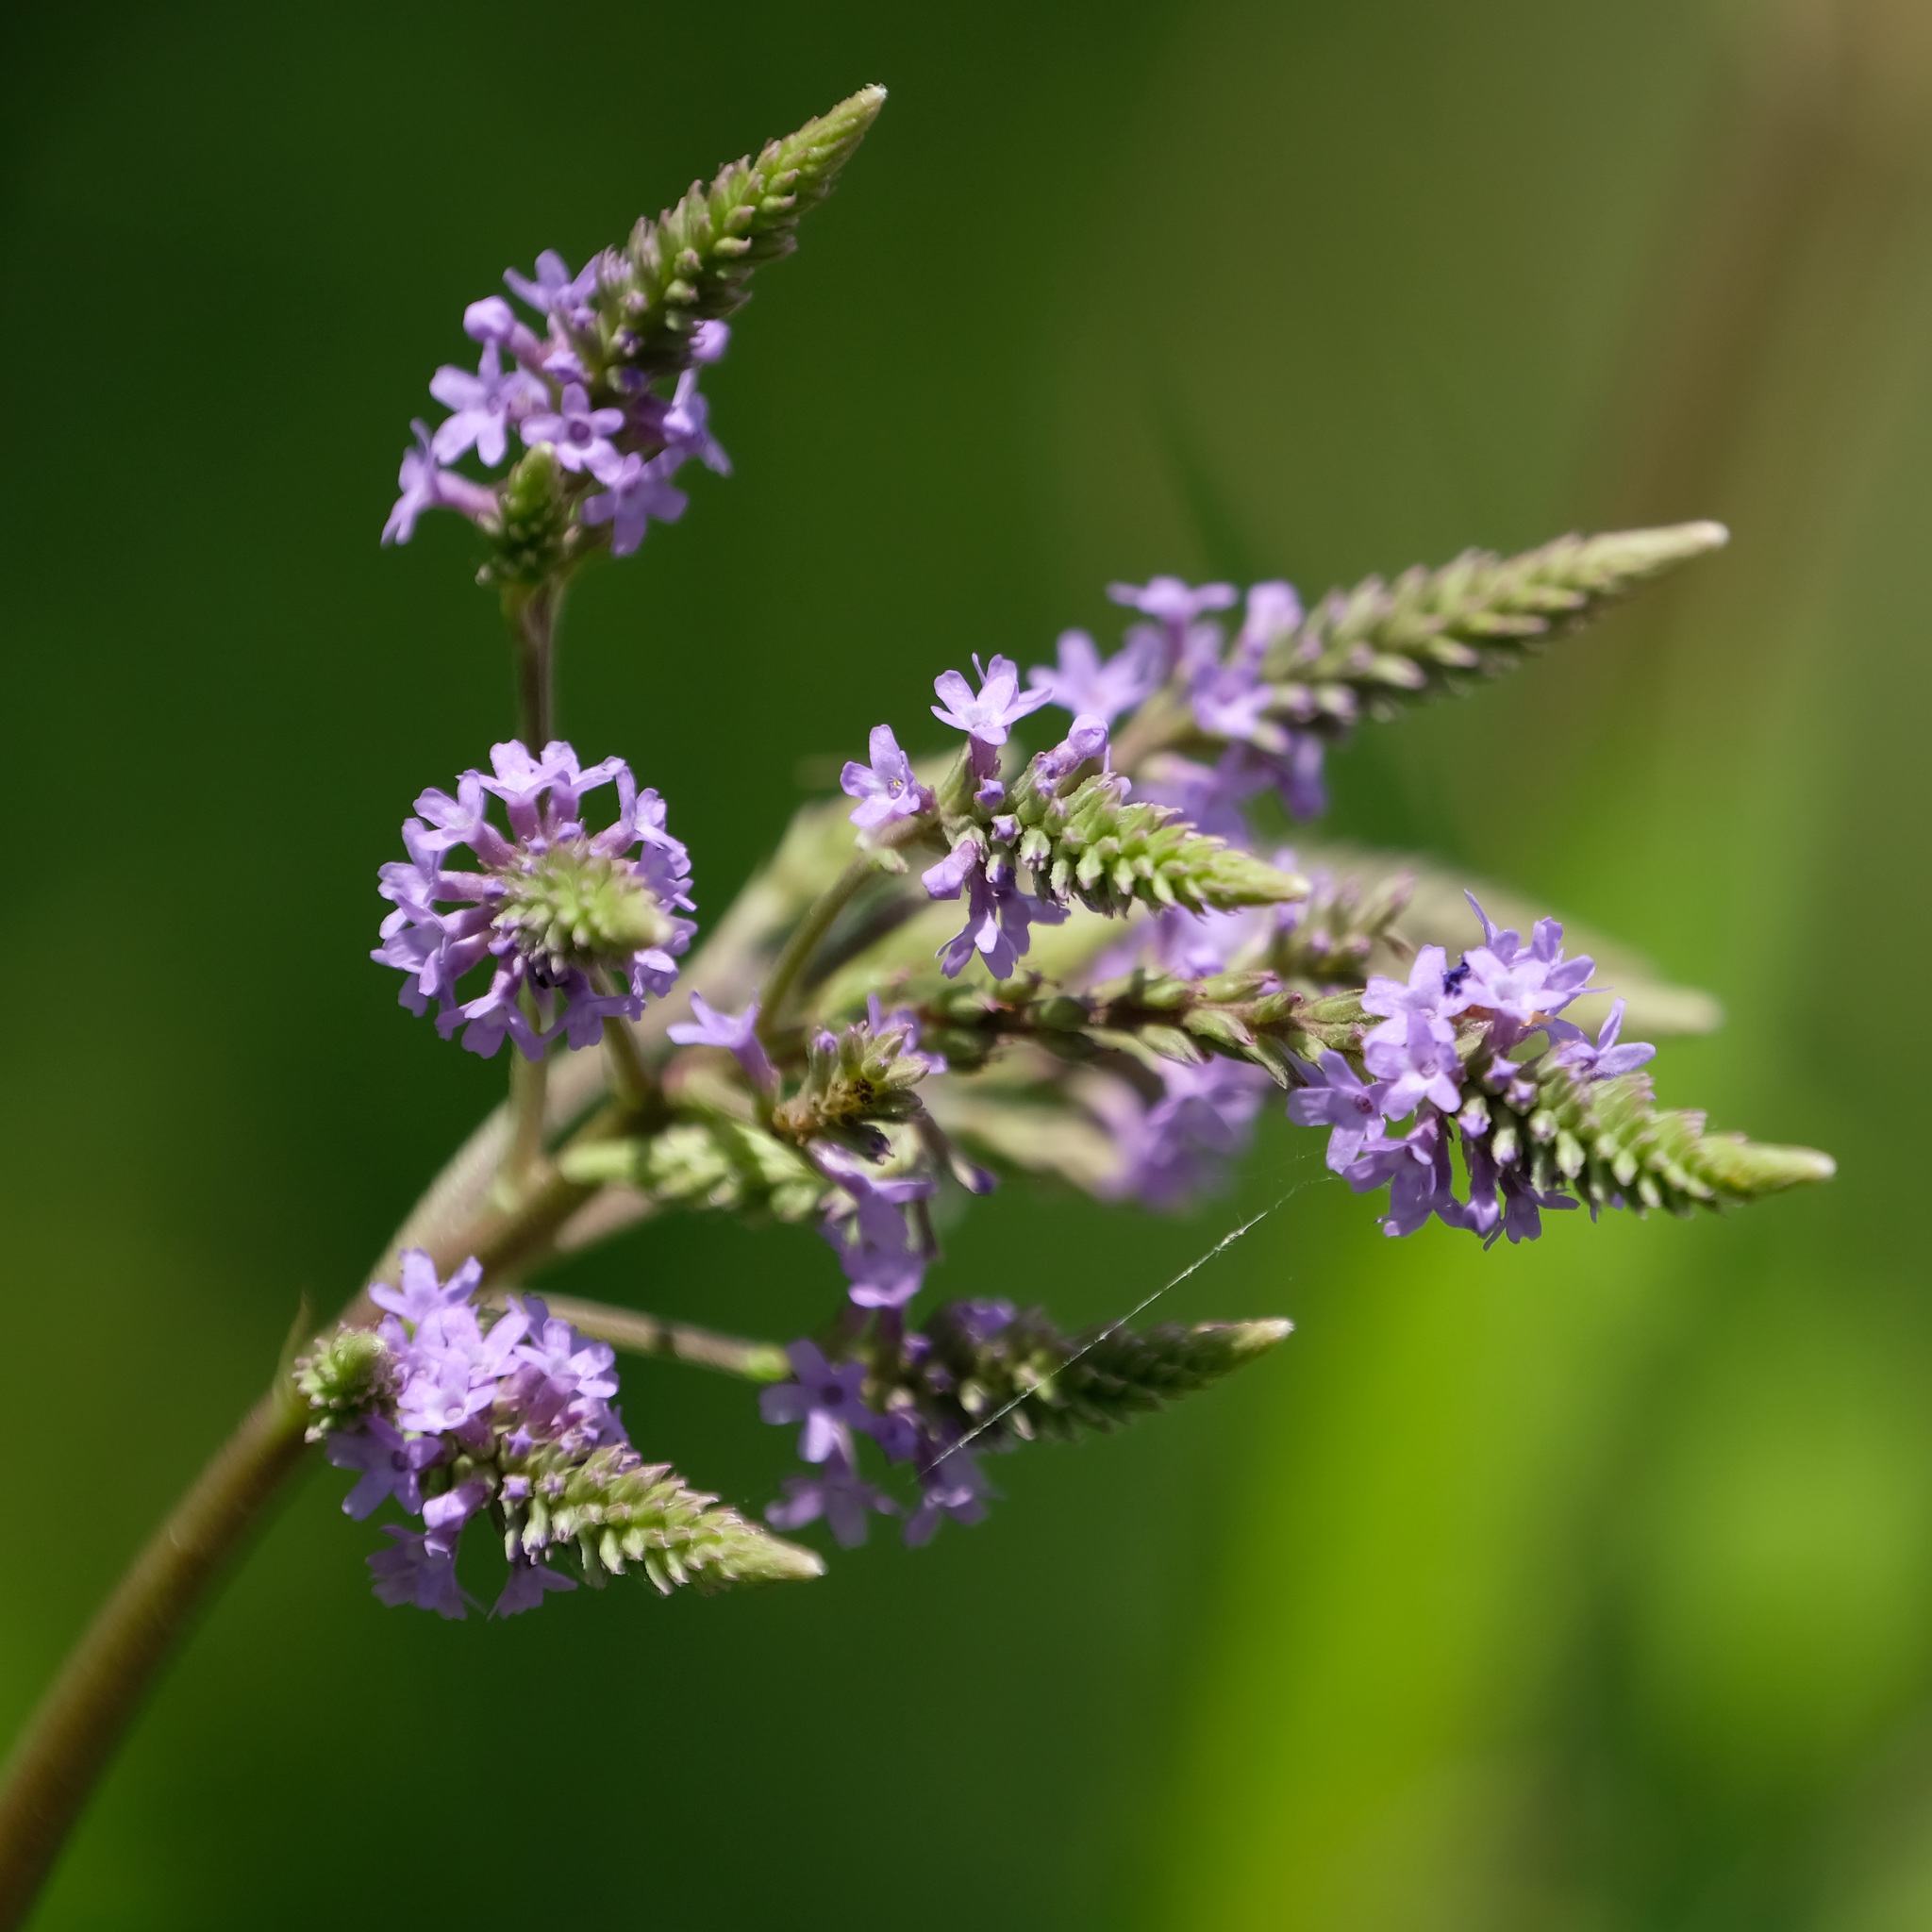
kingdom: Plantae
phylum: Tracheophyta
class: Magnoliopsida
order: Lamiales
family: Verbenaceae
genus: Verbena
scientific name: Verbena hastata
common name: American blue vervain
